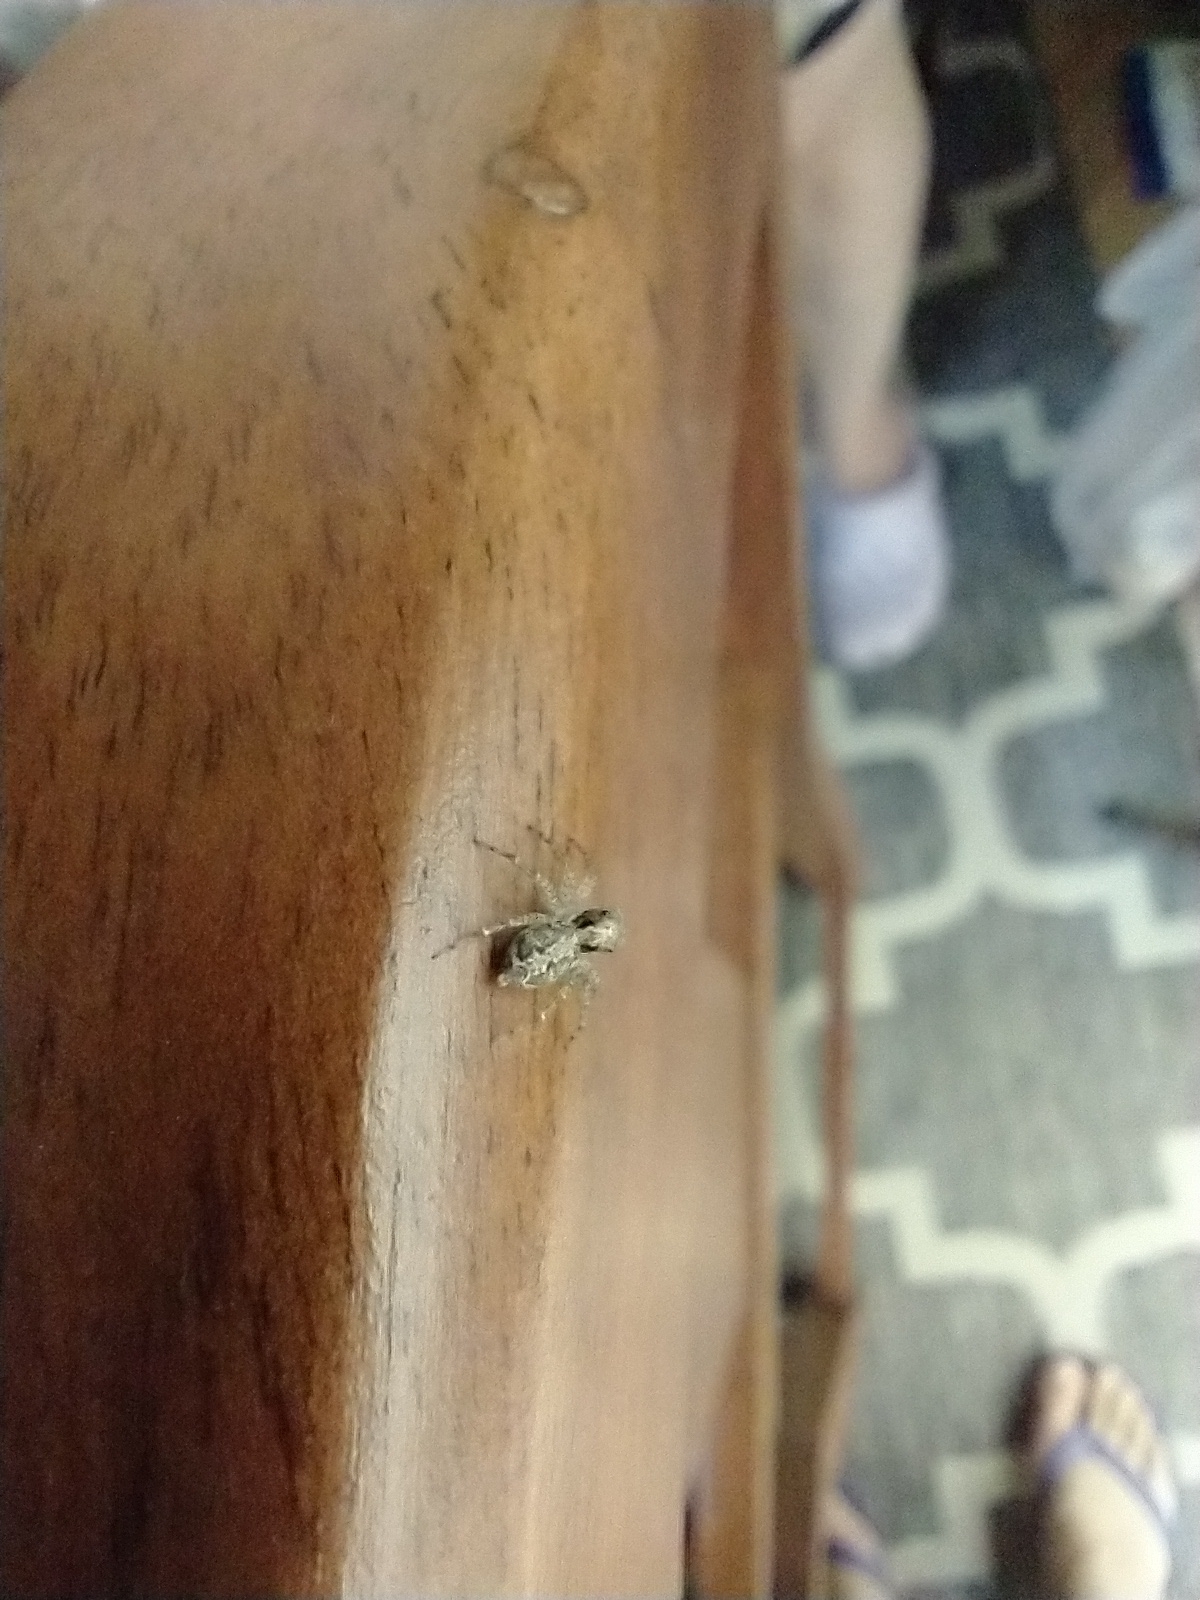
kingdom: Animalia
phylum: Arthropoda
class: Arachnida
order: Araneae
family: Salticidae
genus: Saitis
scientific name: Saitis variegatus
